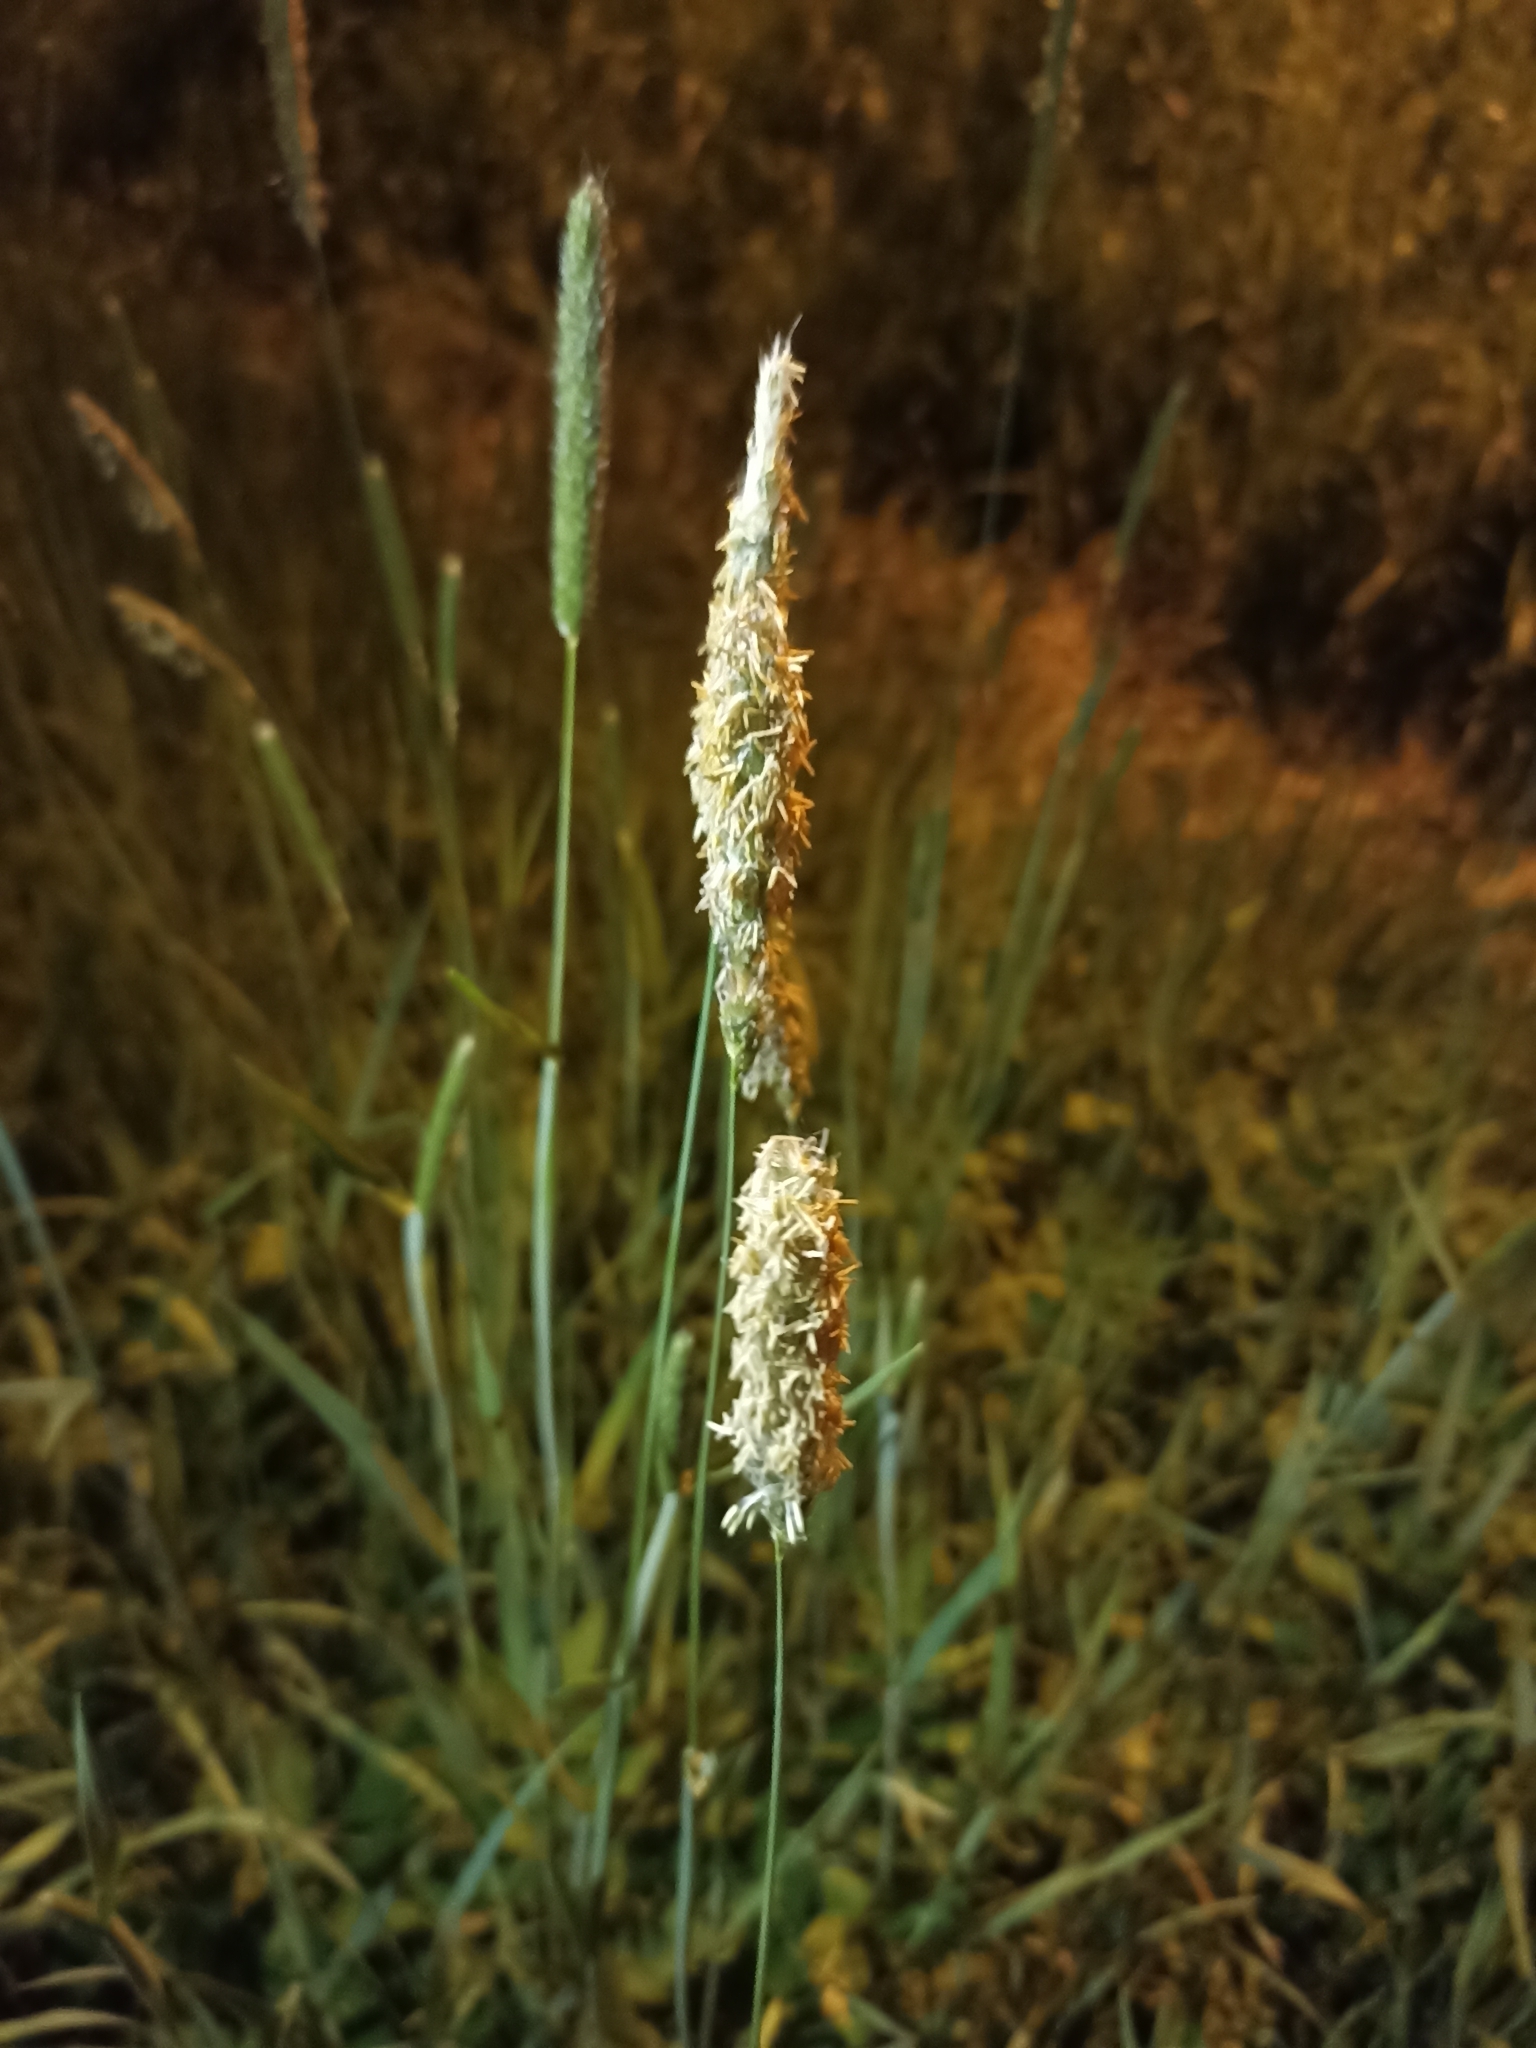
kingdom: Plantae
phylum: Tracheophyta
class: Liliopsida
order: Poales
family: Poaceae
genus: Alopecurus
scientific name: Alopecurus pratensis
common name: Meadow foxtail
